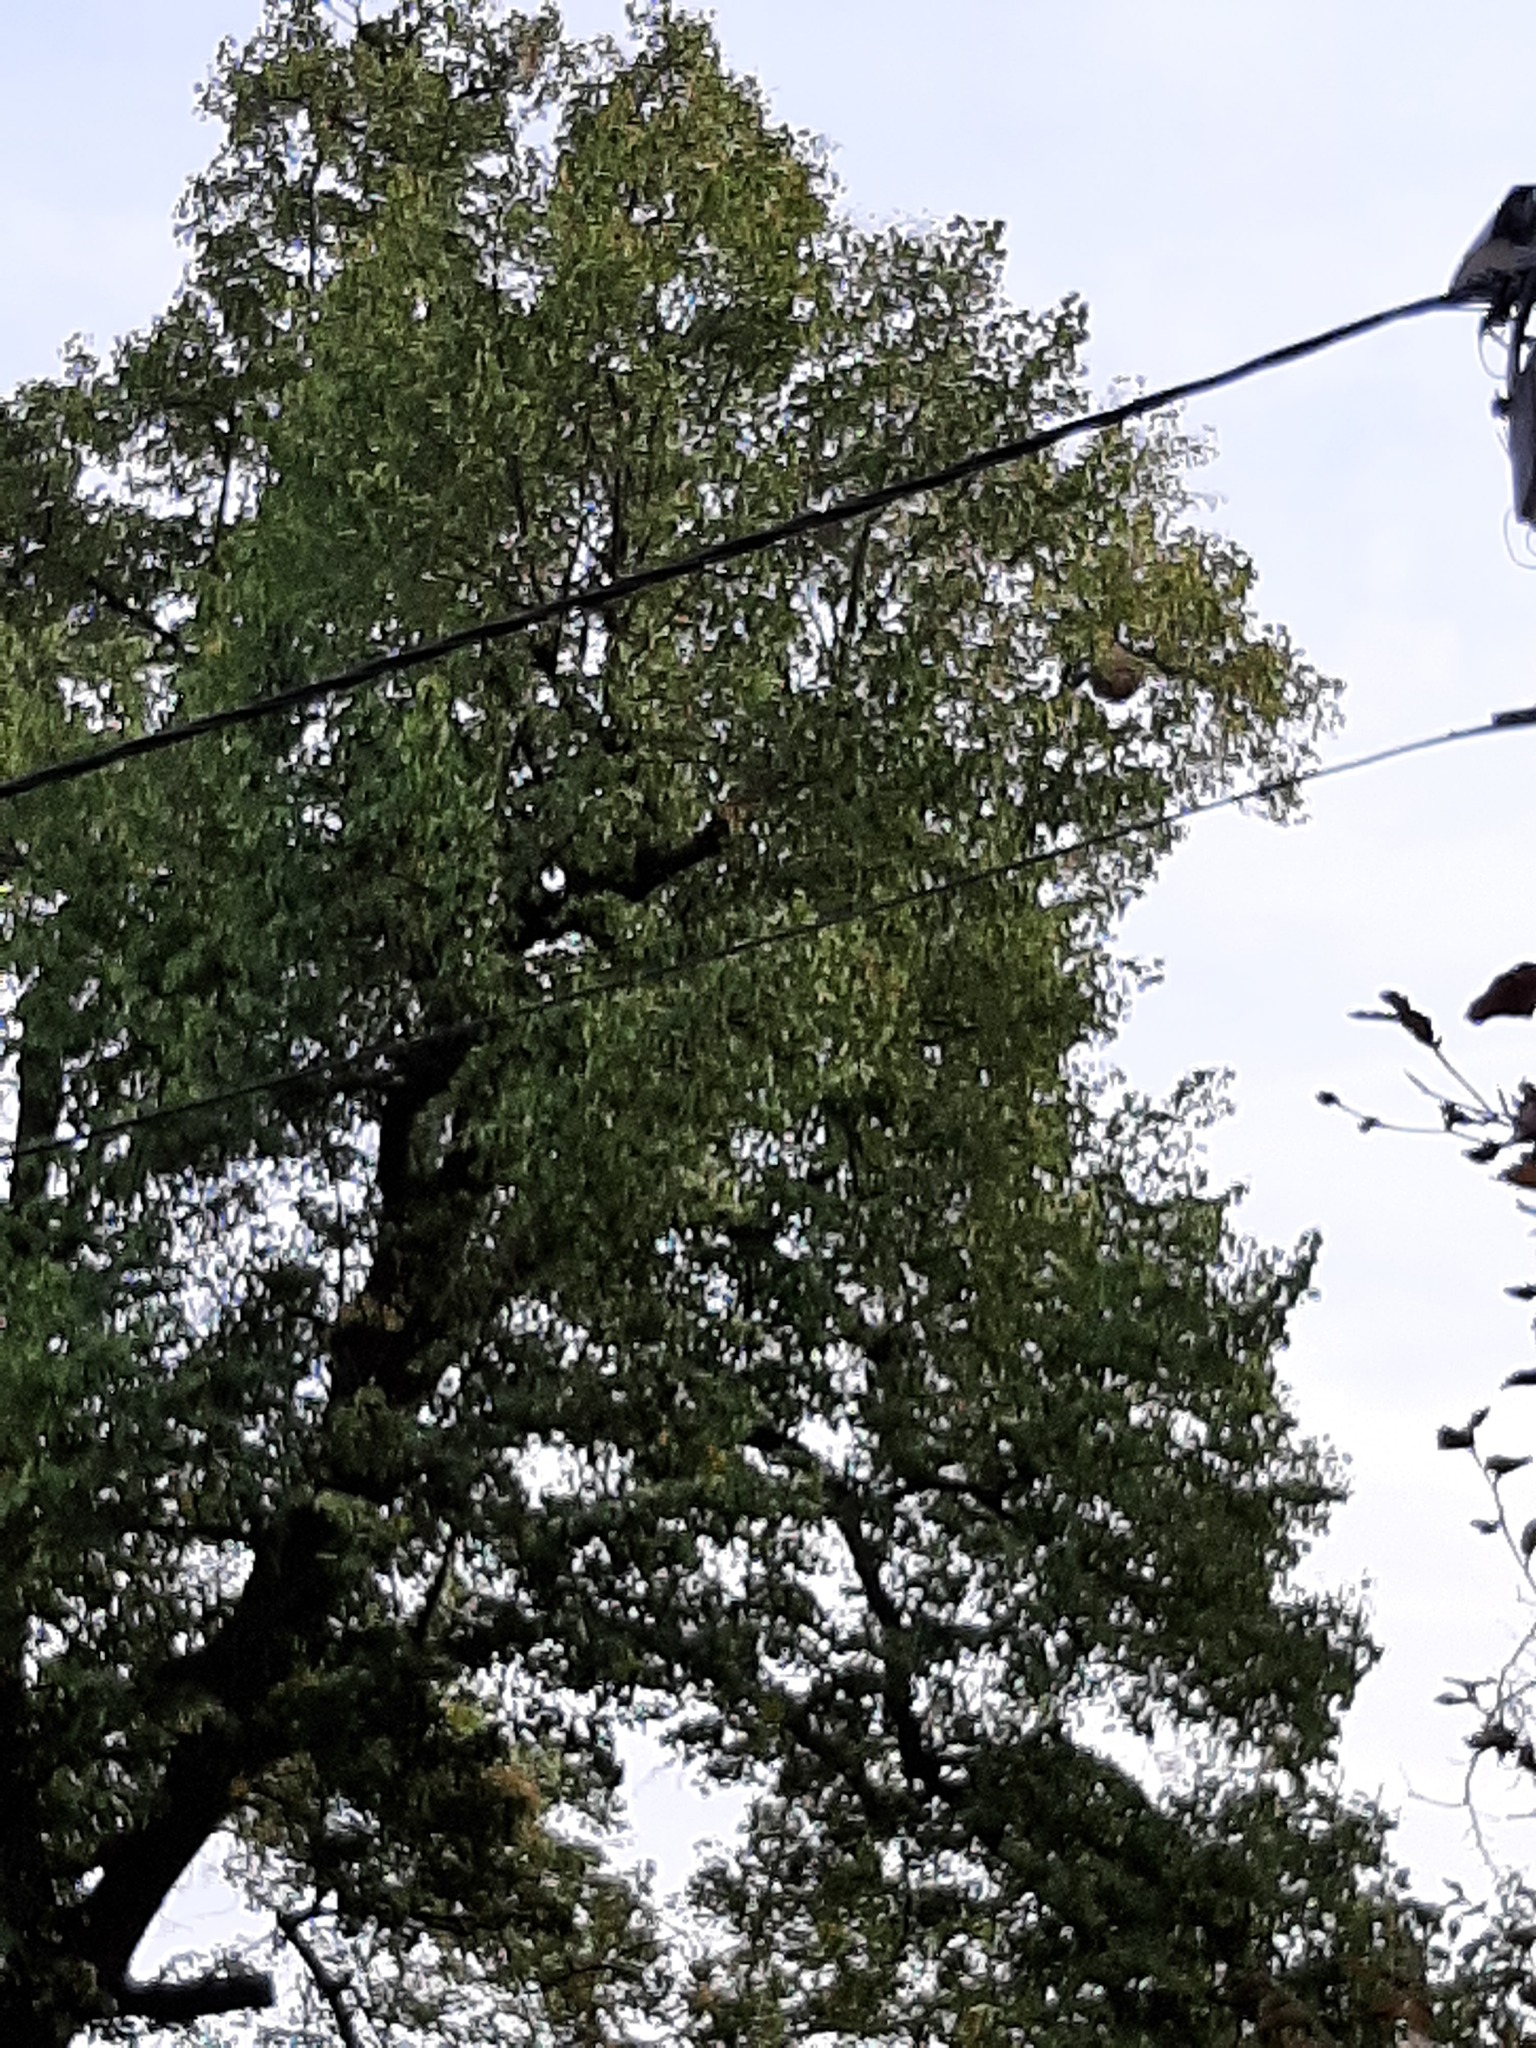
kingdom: Animalia
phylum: Arthropoda
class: Insecta
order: Hymenoptera
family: Vespidae
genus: Vespa
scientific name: Vespa velutina
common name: Asian hornet
